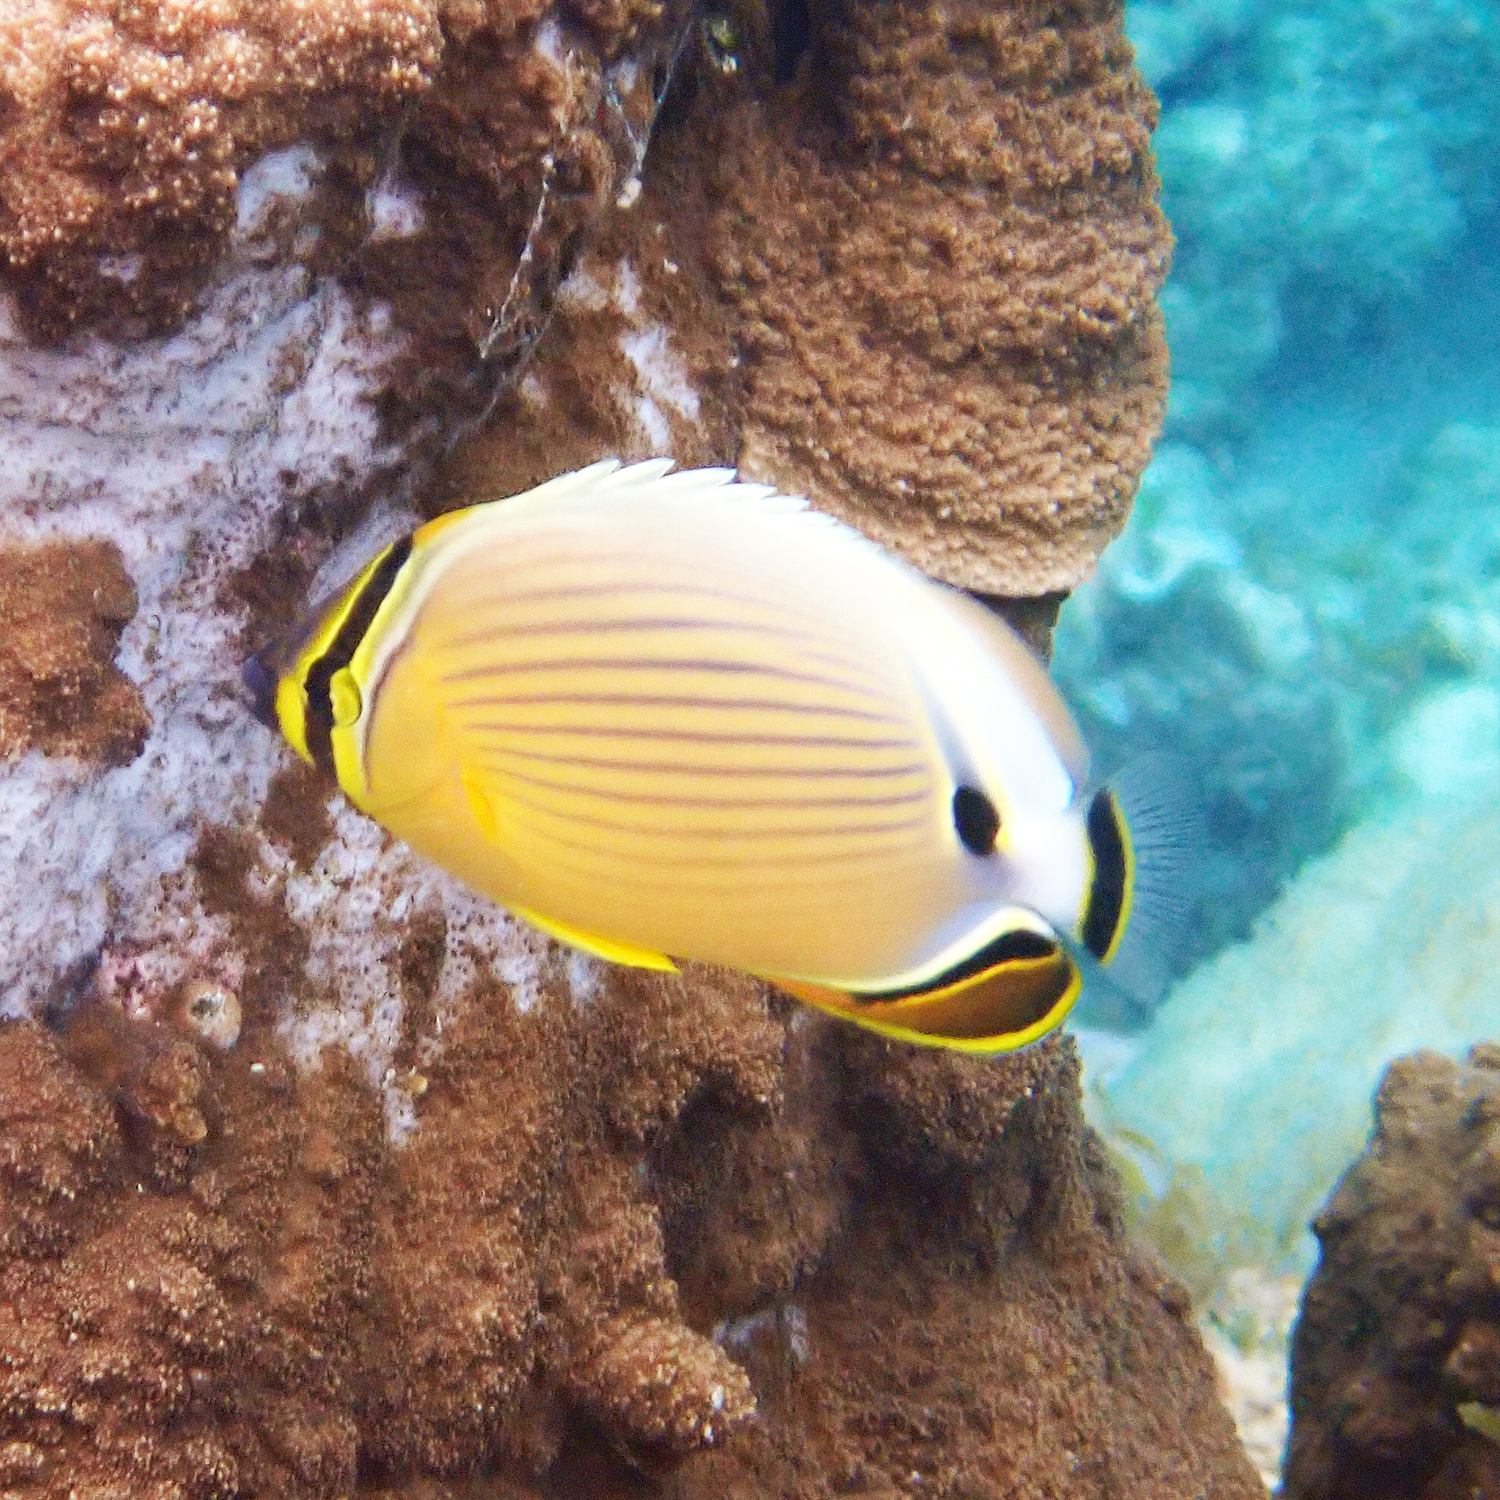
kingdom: Animalia
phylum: Chordata
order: Perciformes
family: Chaetodontidae
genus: Chaetodon
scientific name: Chaetodon lunulatus
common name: Redfin butterflyfish
